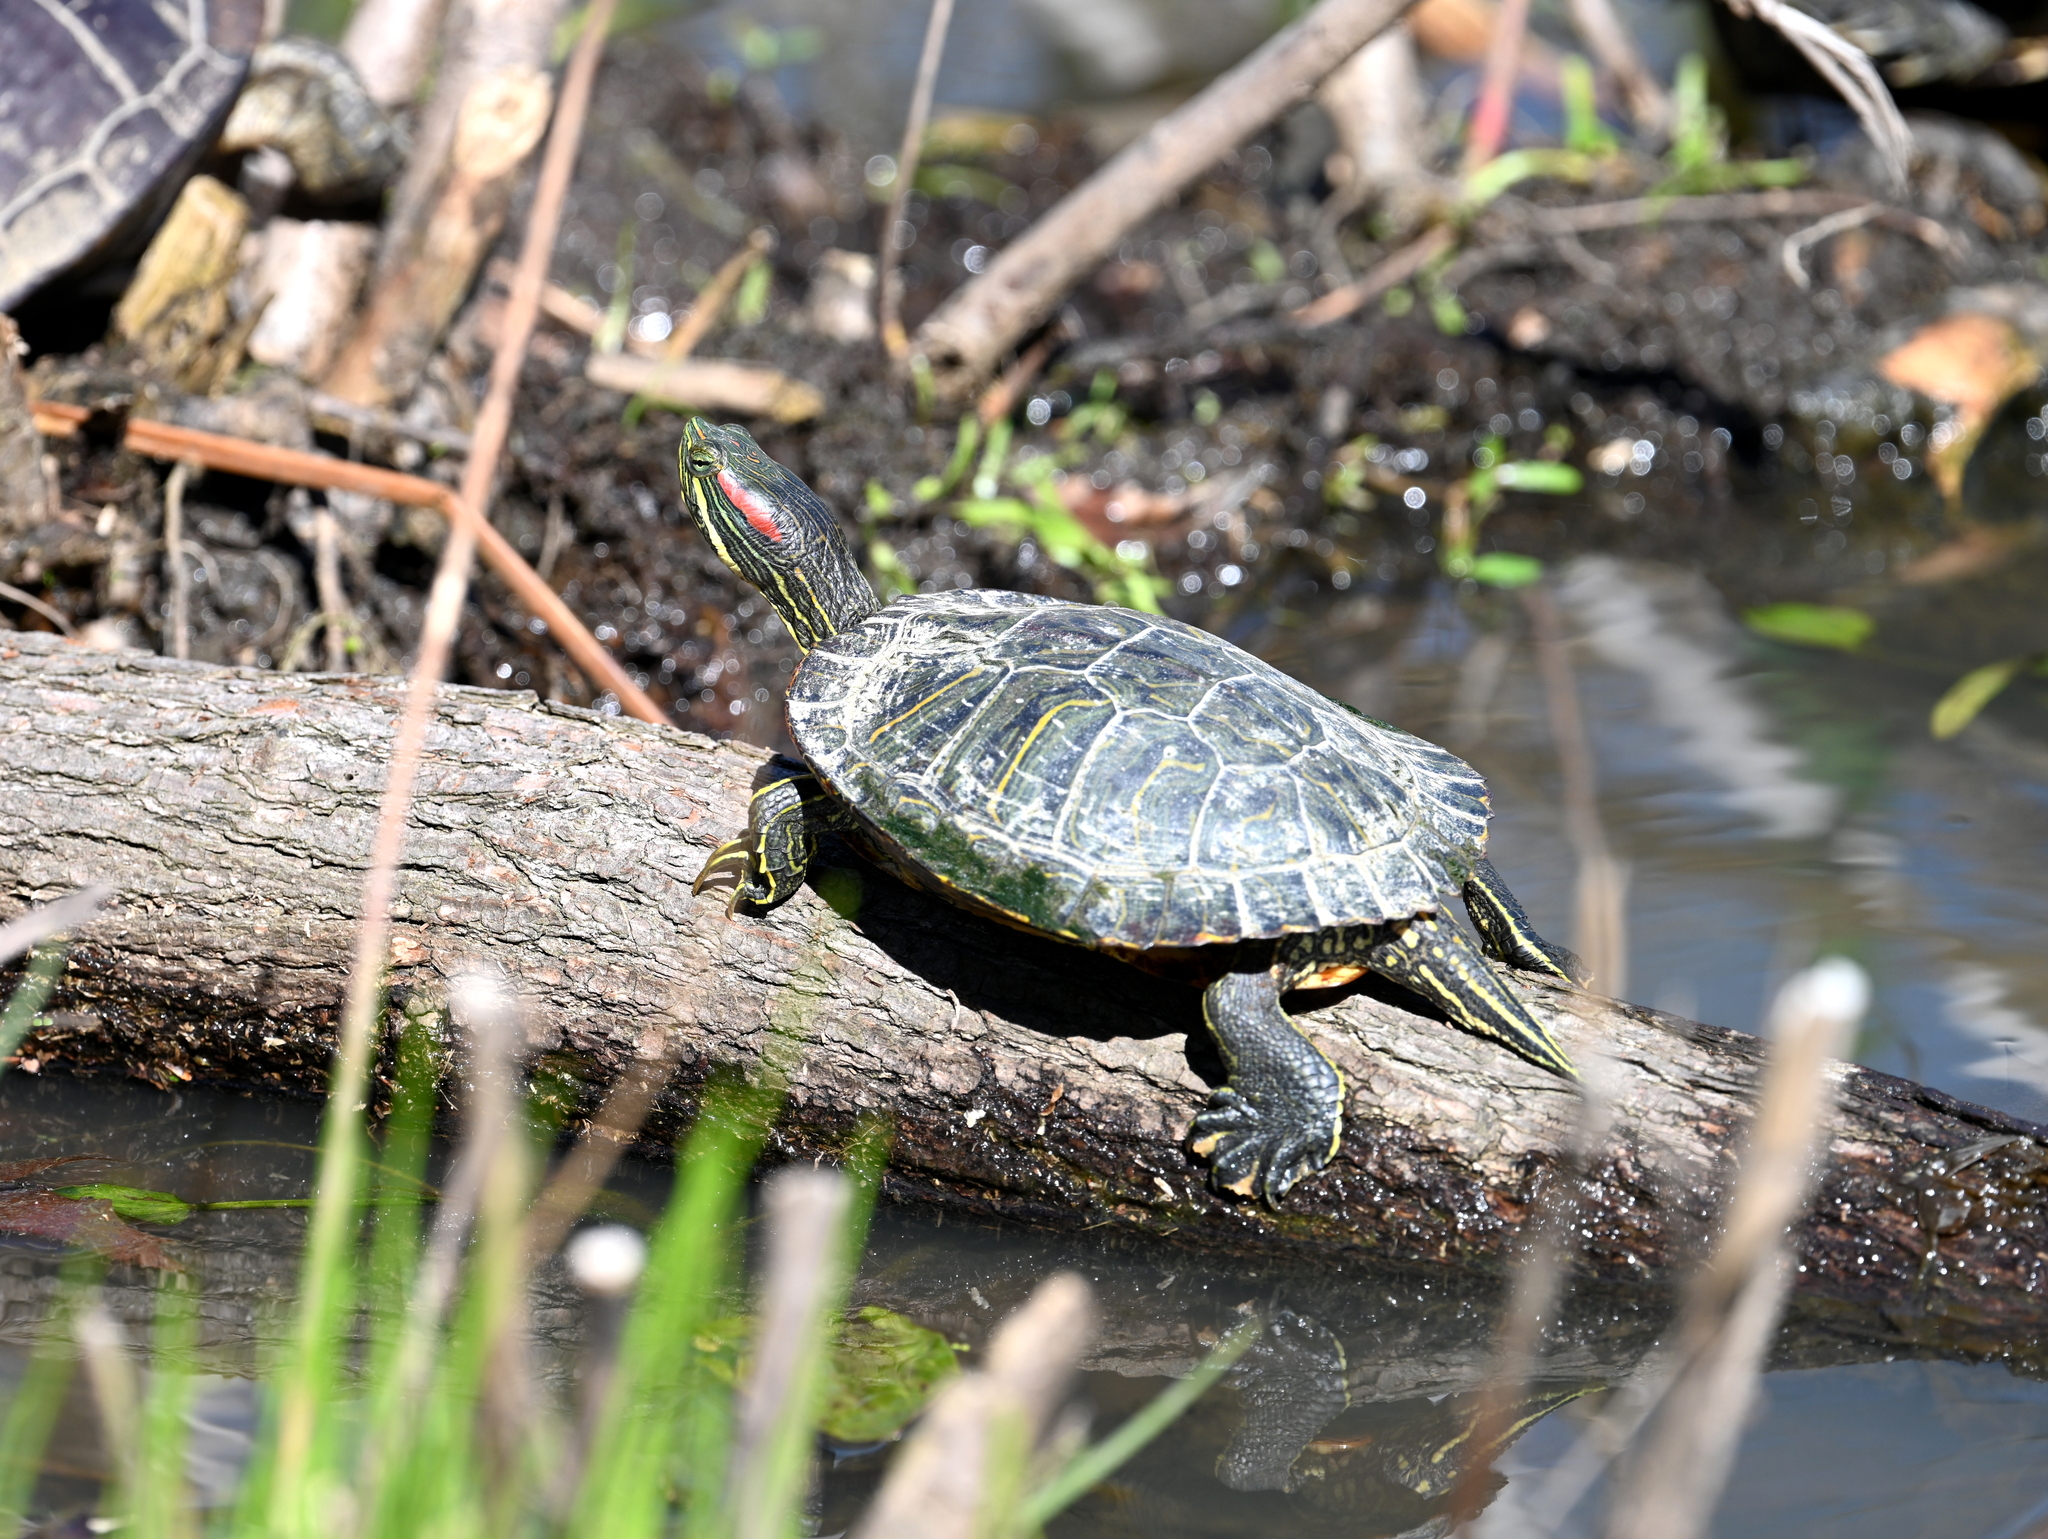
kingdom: Animalia
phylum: Chordata
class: Testudines
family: Emydidae
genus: Trachemys
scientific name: Trachemys scripta
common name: Slider
